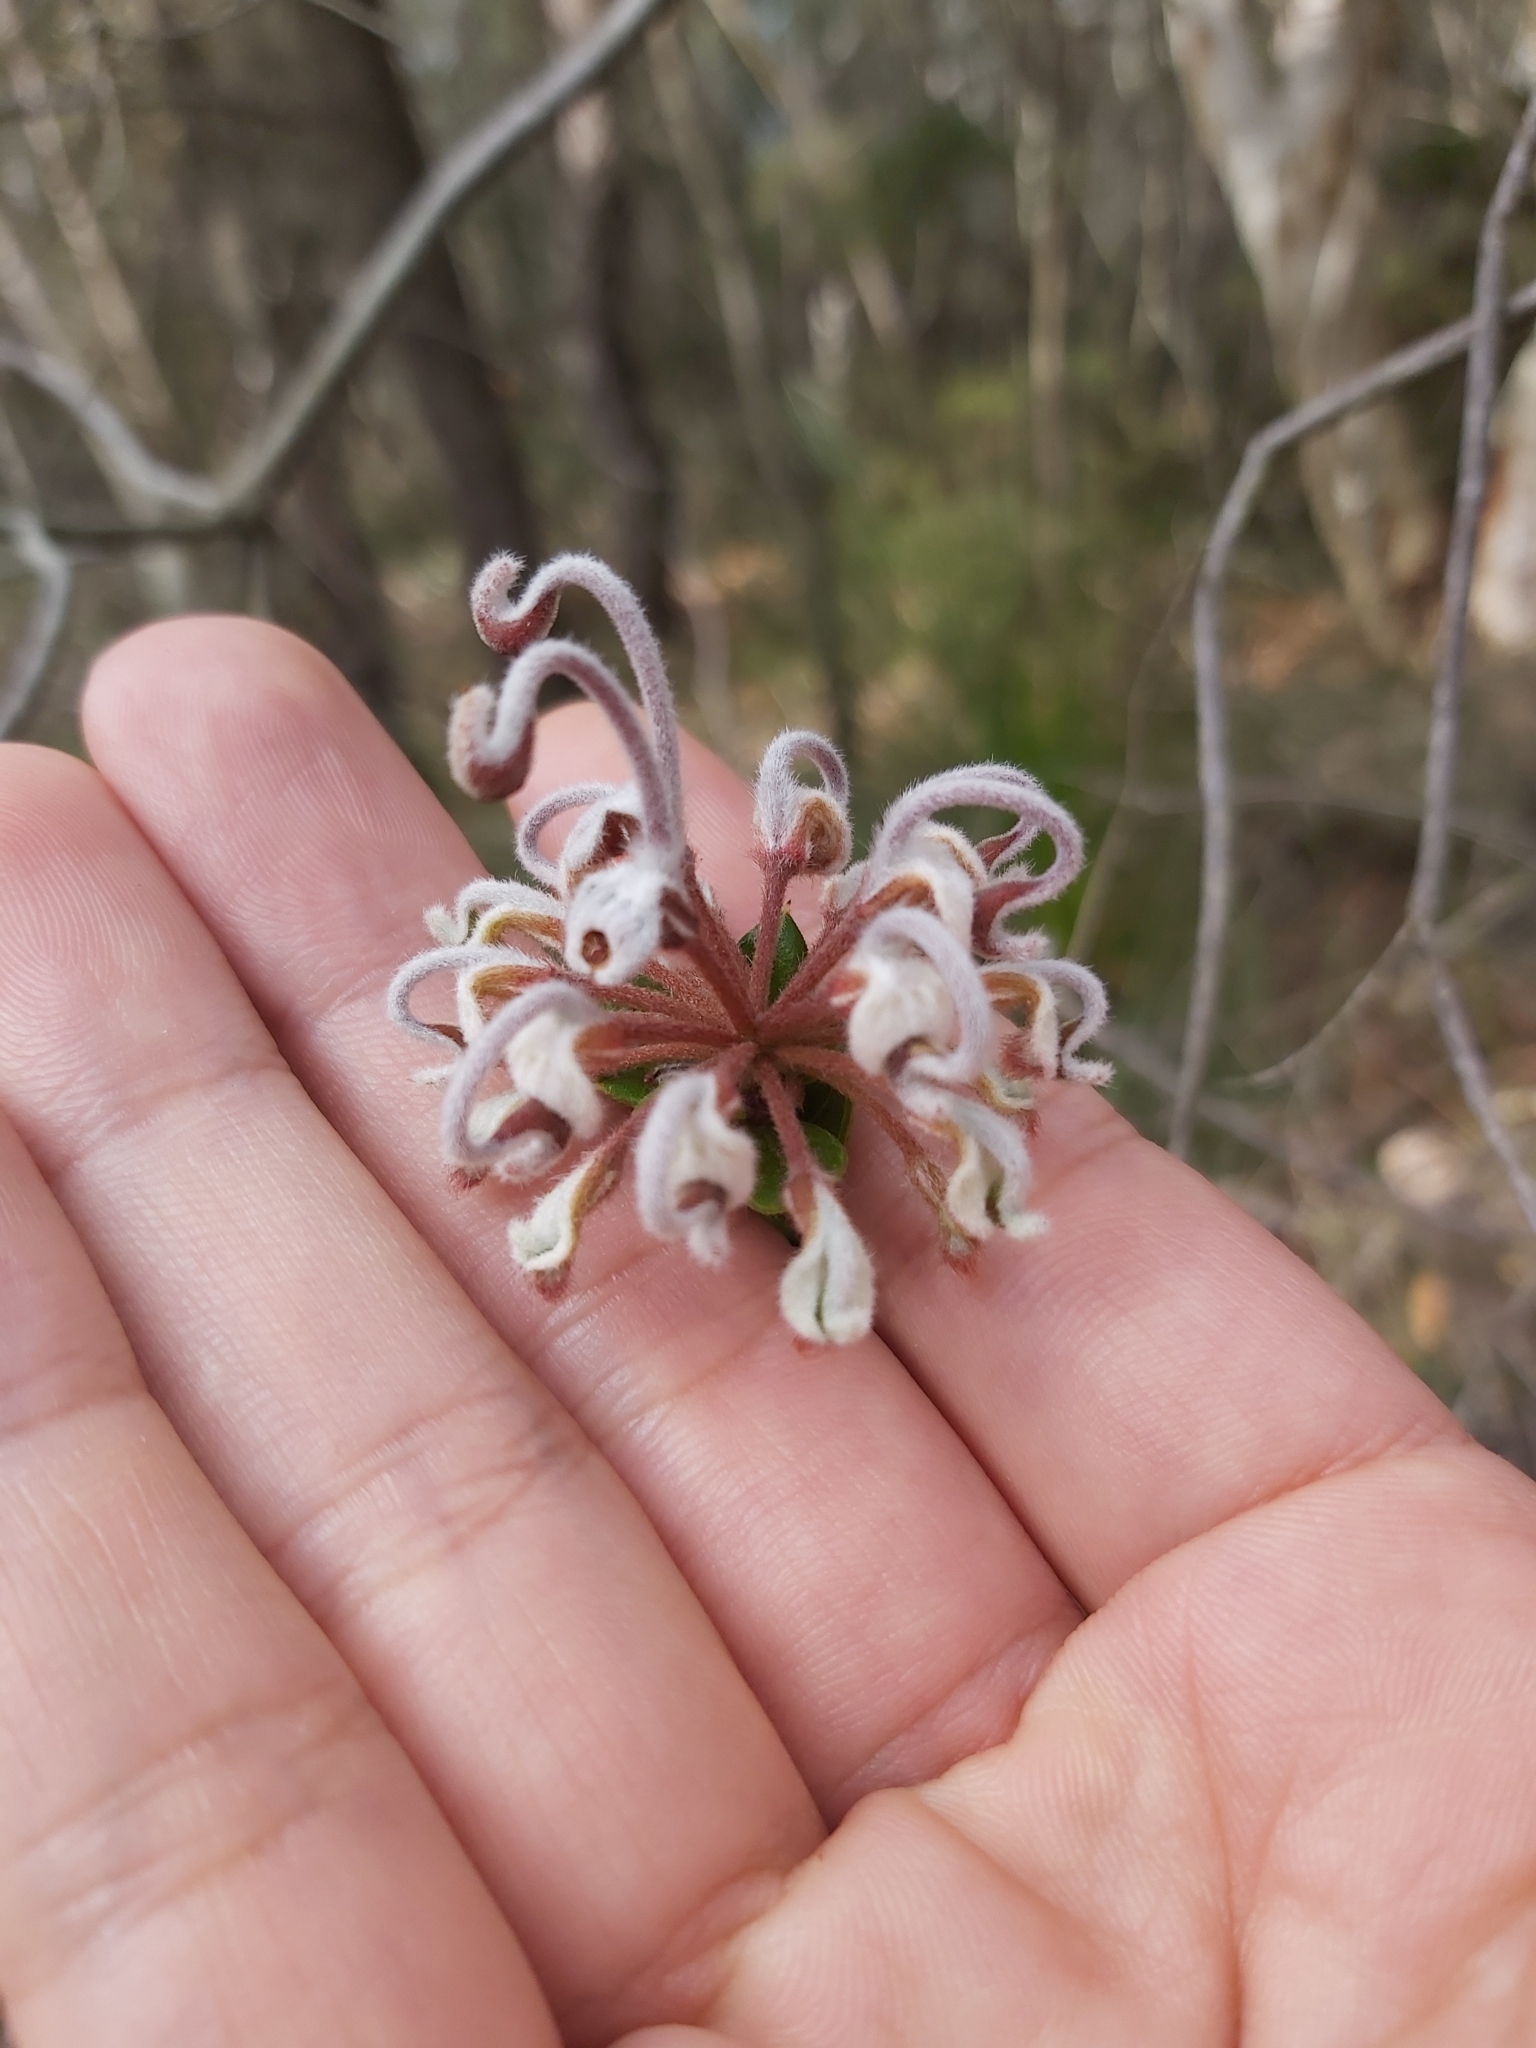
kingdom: Plantae
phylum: Tracheophyta
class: Magnoliopsida
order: Proteales
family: Proteaceae
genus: Grevillea
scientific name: Grevillea buxifolia
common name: Grey spiderflower
